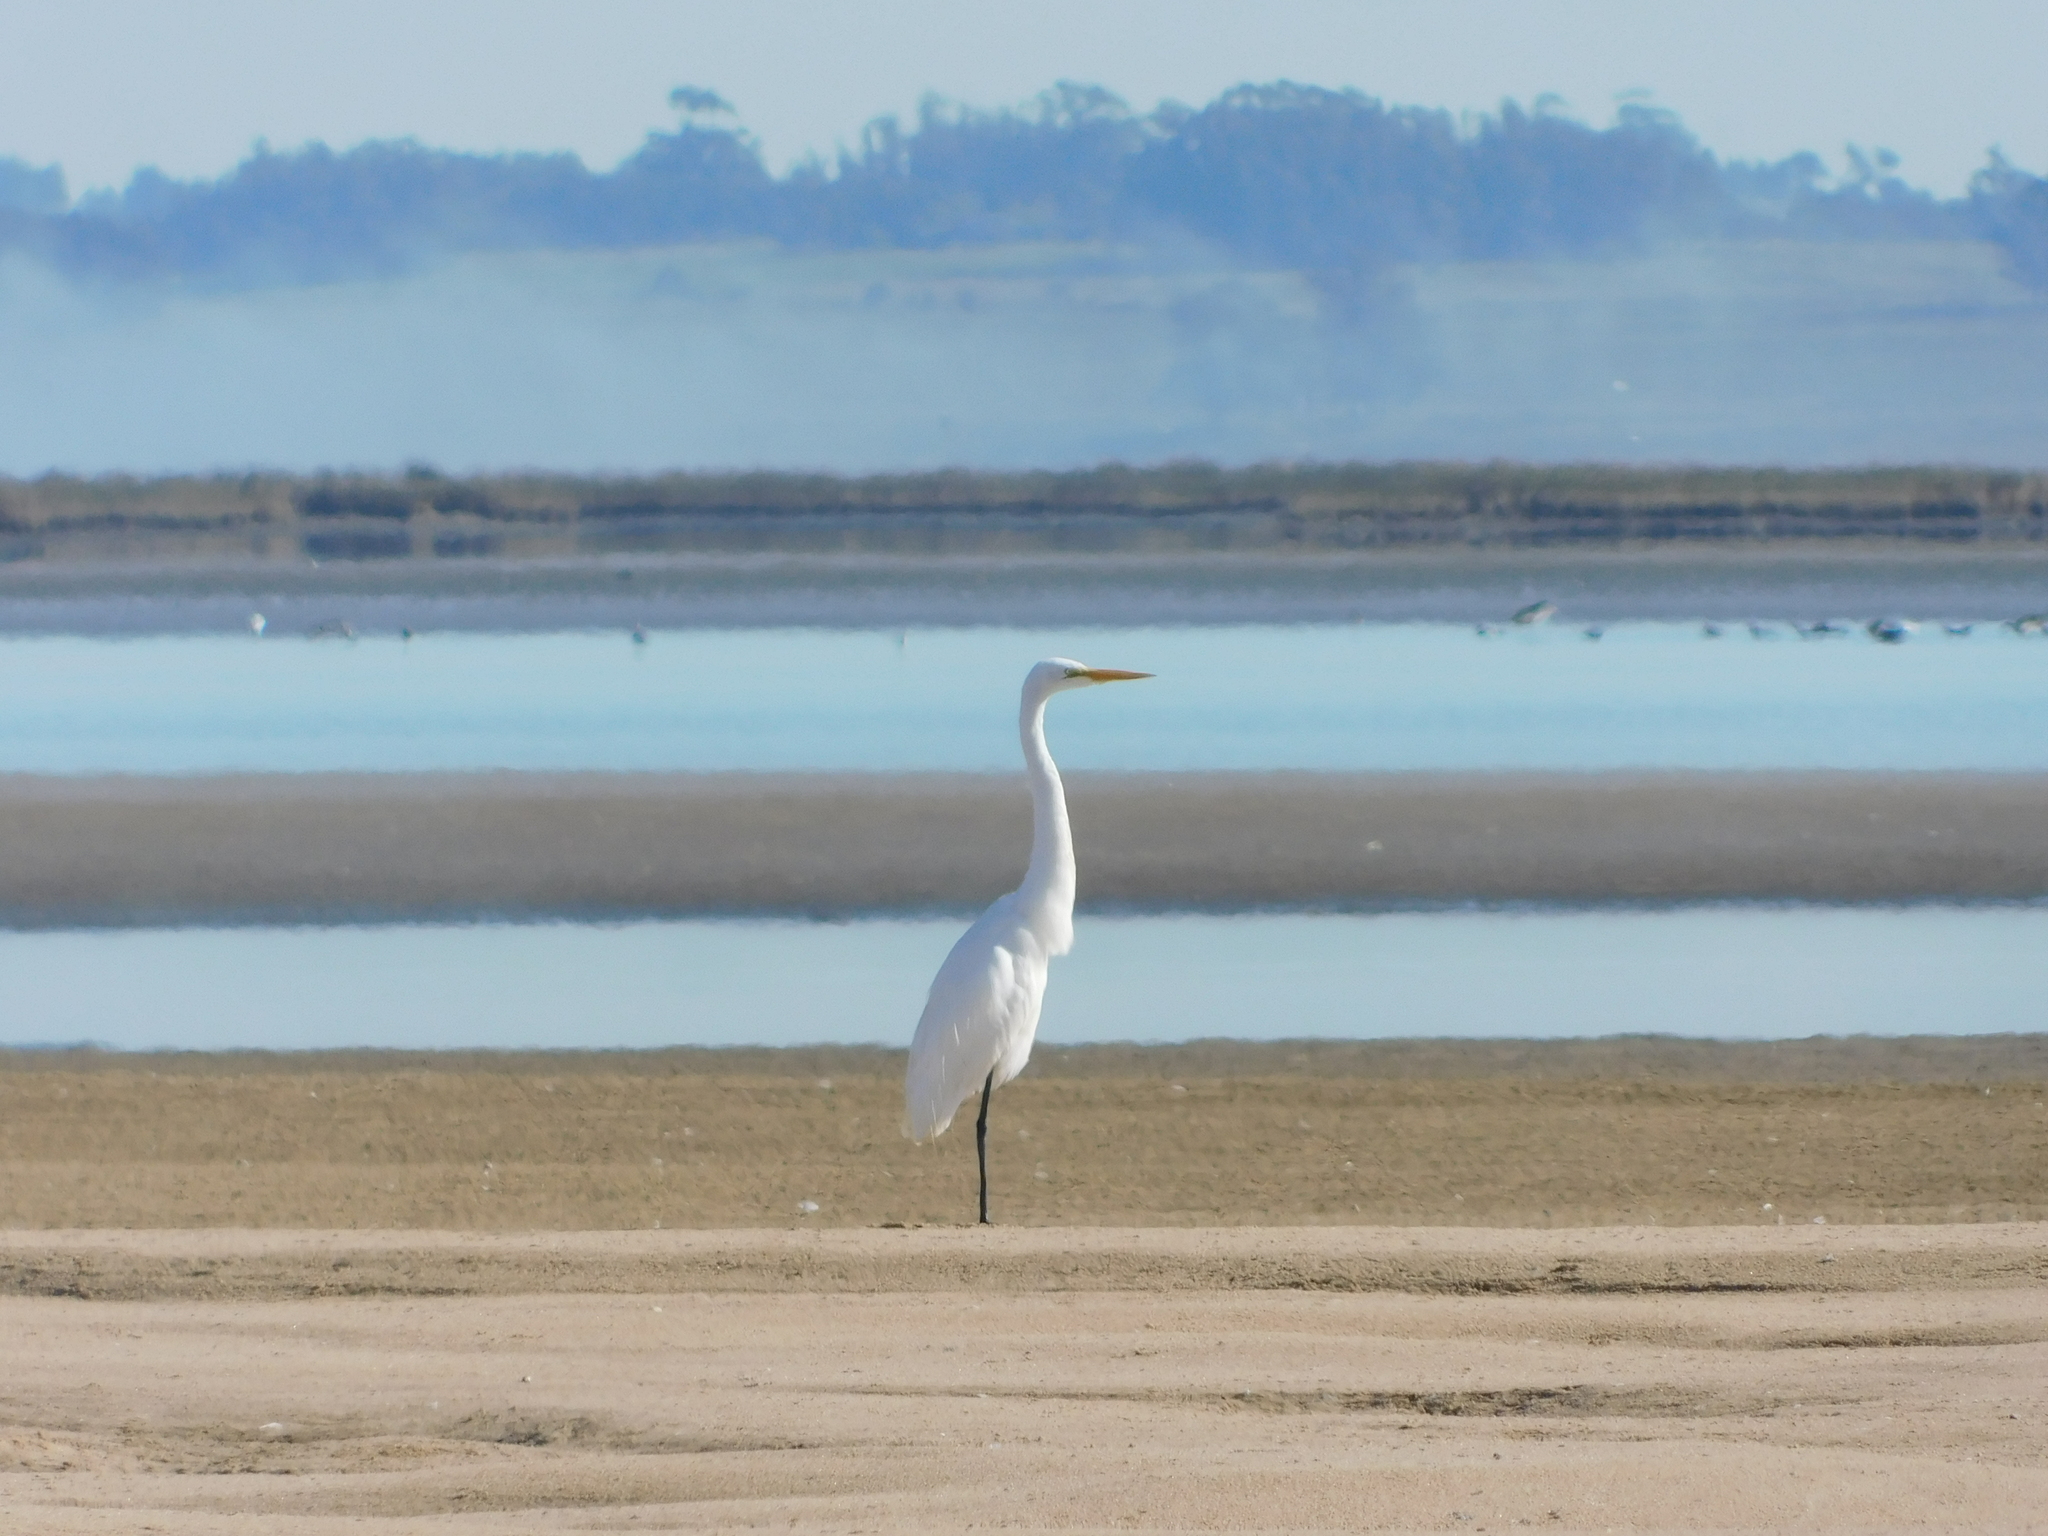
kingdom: Animalia
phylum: Chordata
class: Aves
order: Pelecaniformes
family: Ardeidae
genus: Ardea
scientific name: Ardea alba
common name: Great egret
